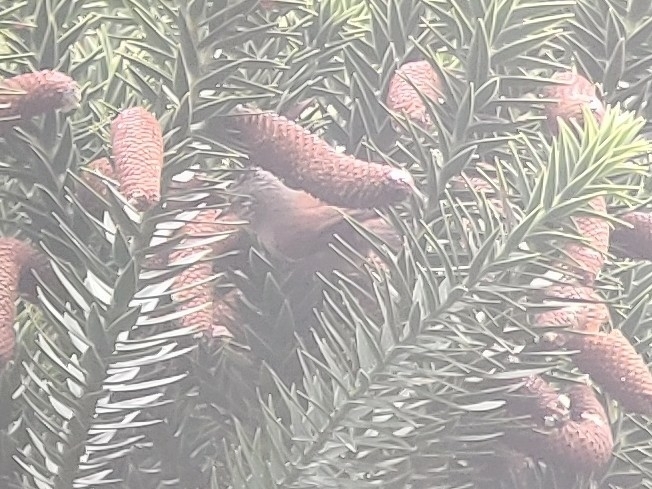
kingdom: Animalia
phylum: Chordata
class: Aves
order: Passeriformes
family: Furnariidae
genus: Leptasthenura
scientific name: Leptasthenura setaria
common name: Araucaria tit-spinetail
